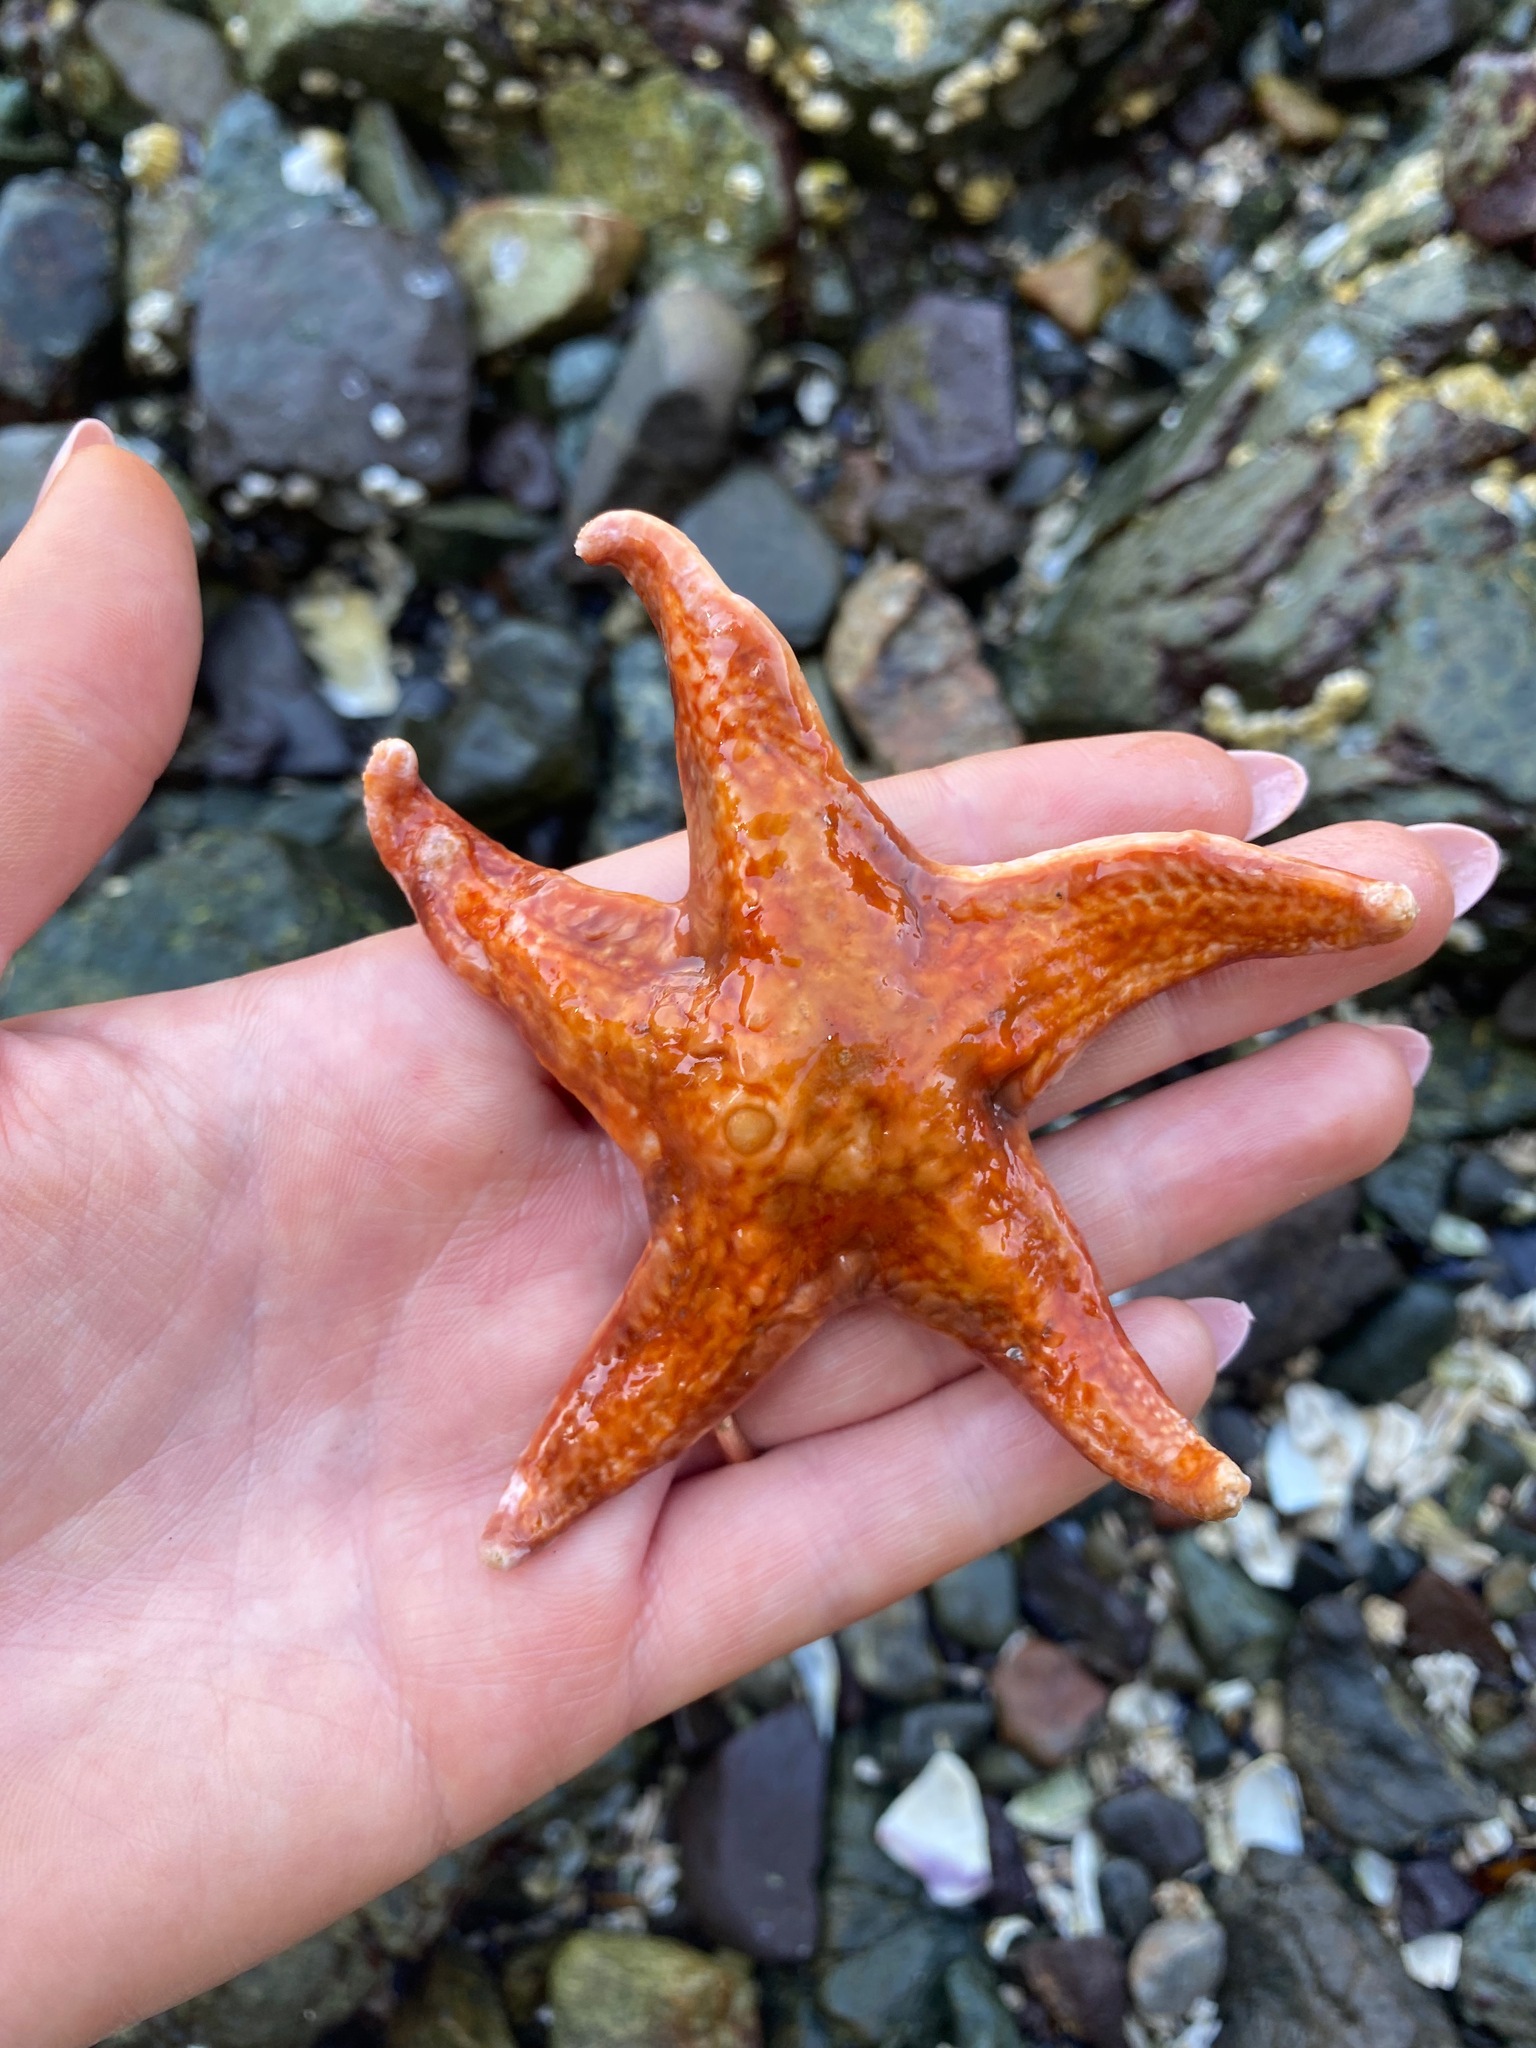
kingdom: Animalia
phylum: Echinodermata
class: Asteroidea
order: Valvatida
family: Asteropseidae
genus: Dermasterias
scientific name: Dermasterias imbricata
